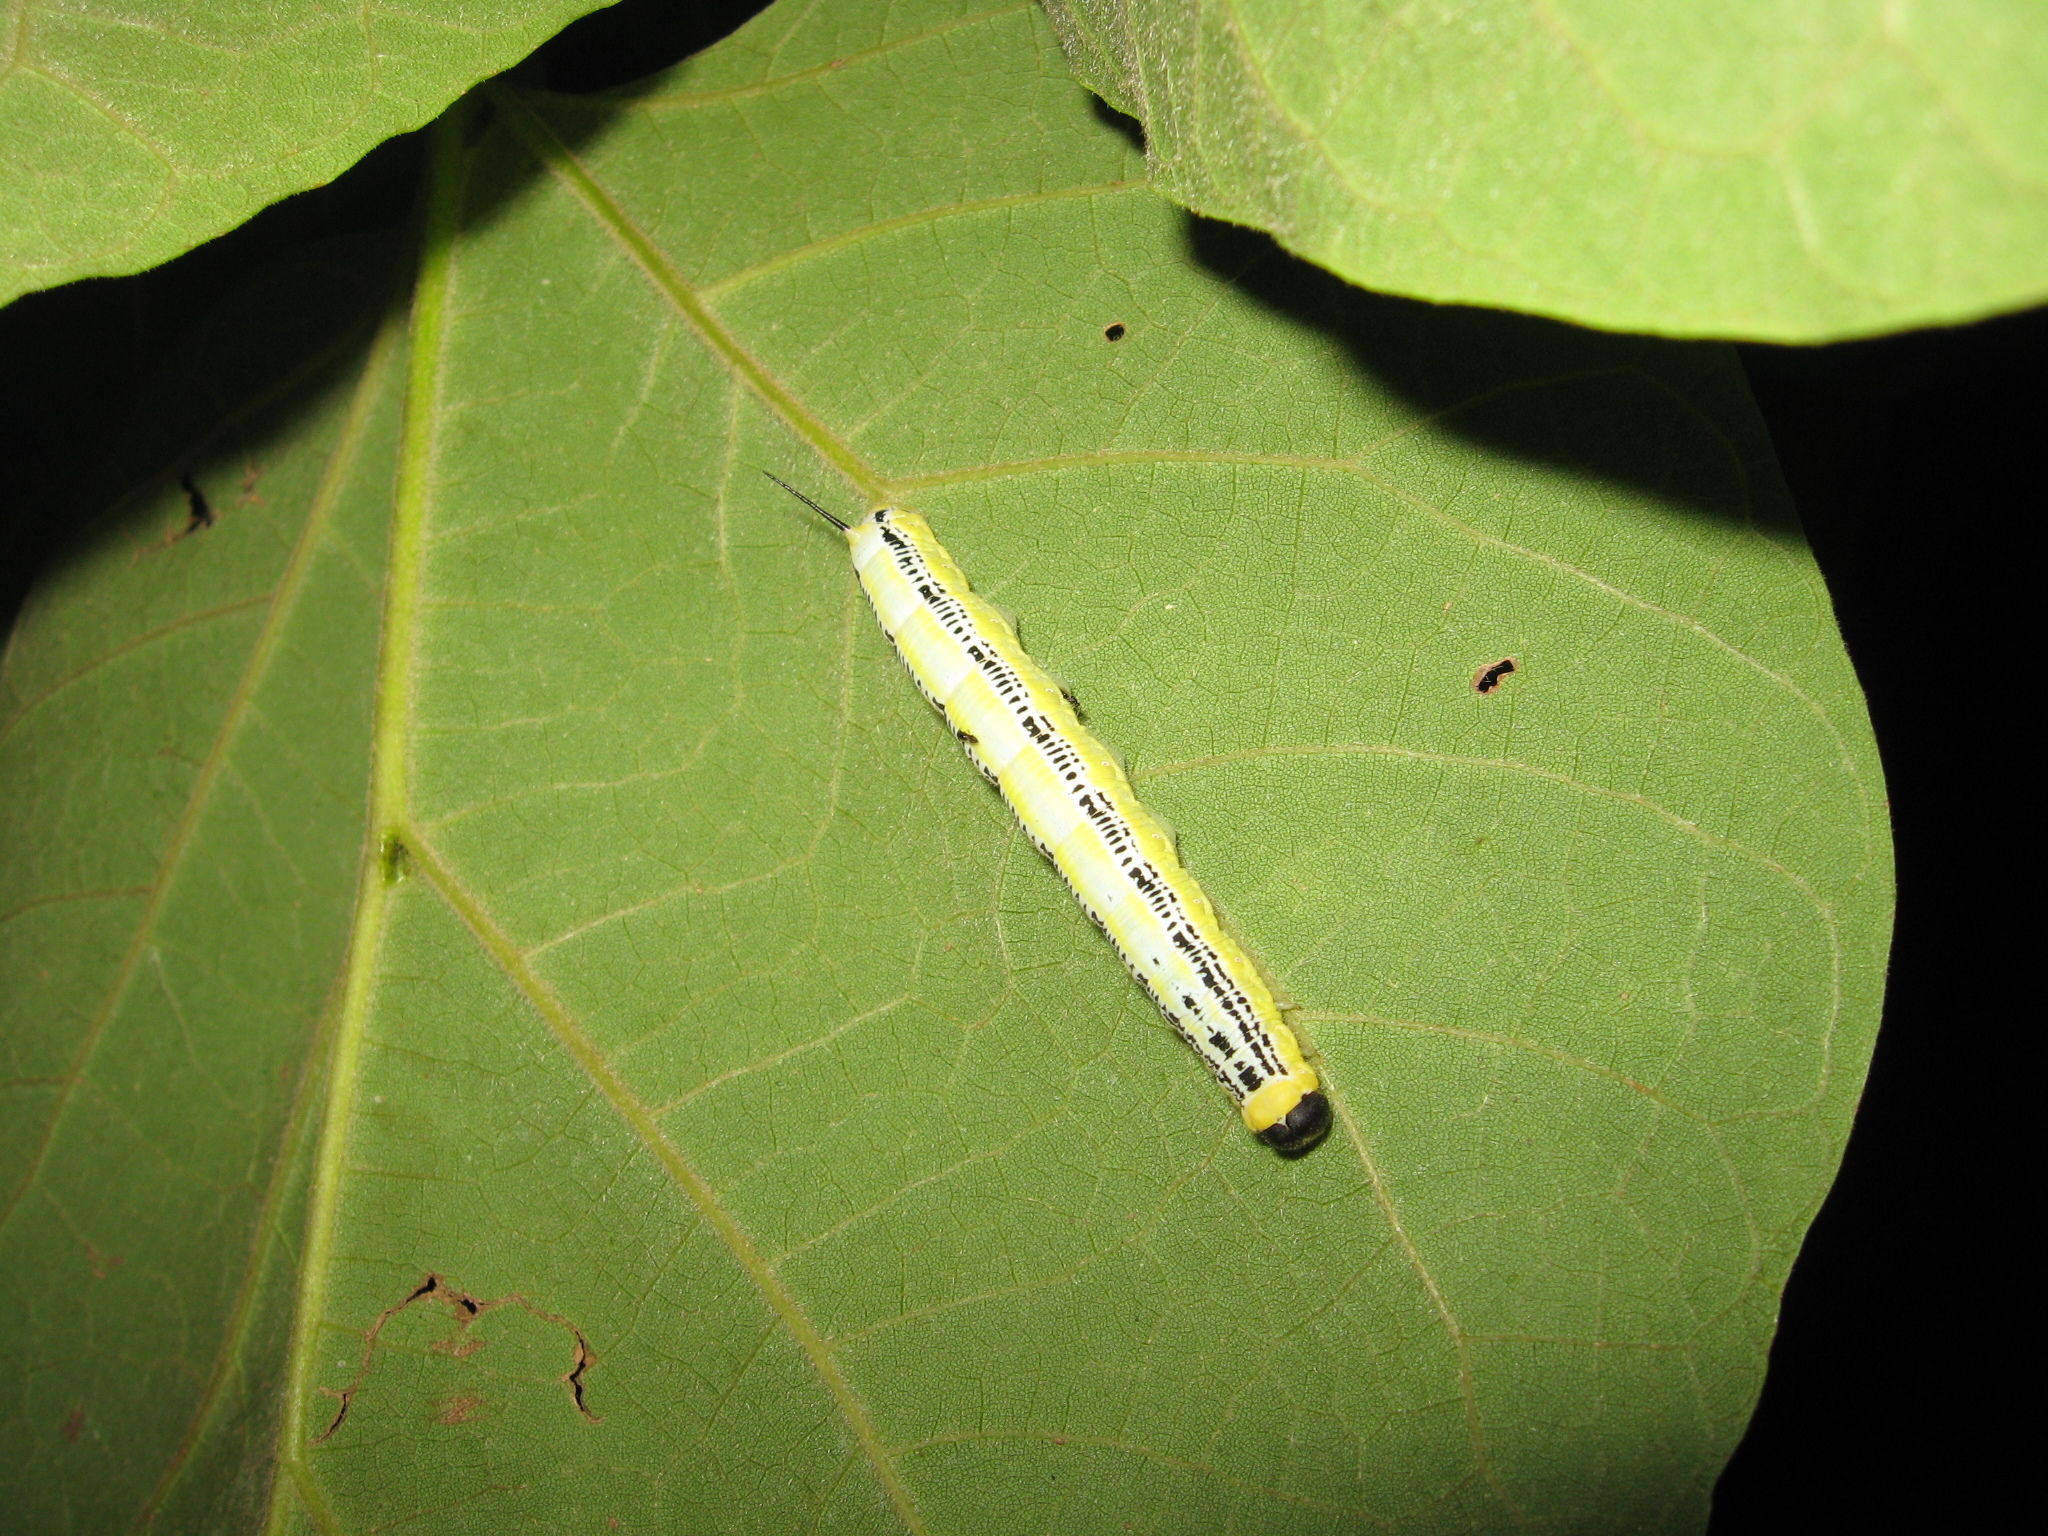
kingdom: Animalia
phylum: Arthropoda
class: Insecta
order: Lepidoptera
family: Sphingidae
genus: Ceratomia
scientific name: Ceratomia catalpae
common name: Catalpa hornworm
